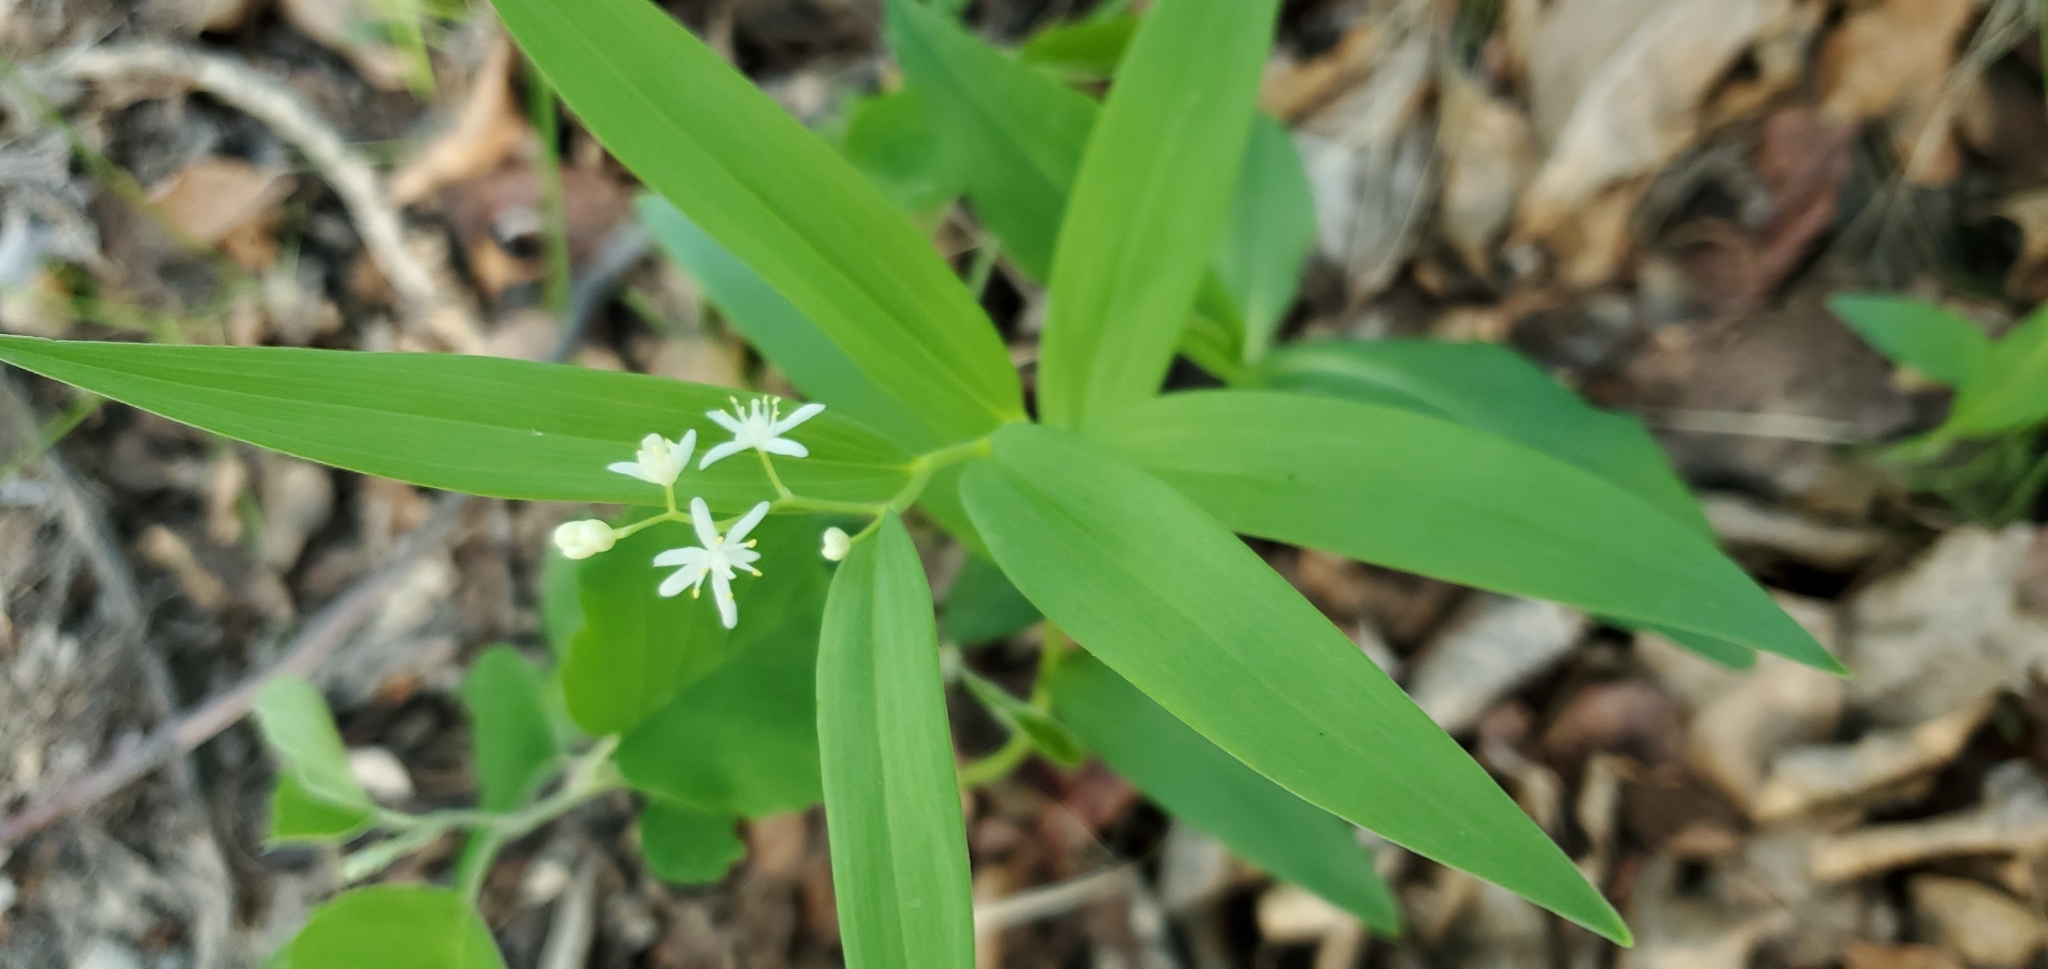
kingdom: Plantae
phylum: Tracheophyta
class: Liliopsida
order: Asparagales
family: Asparagaceae
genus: Maianthemum
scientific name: Maianthemum stellatum
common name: Little false solomon's seal
